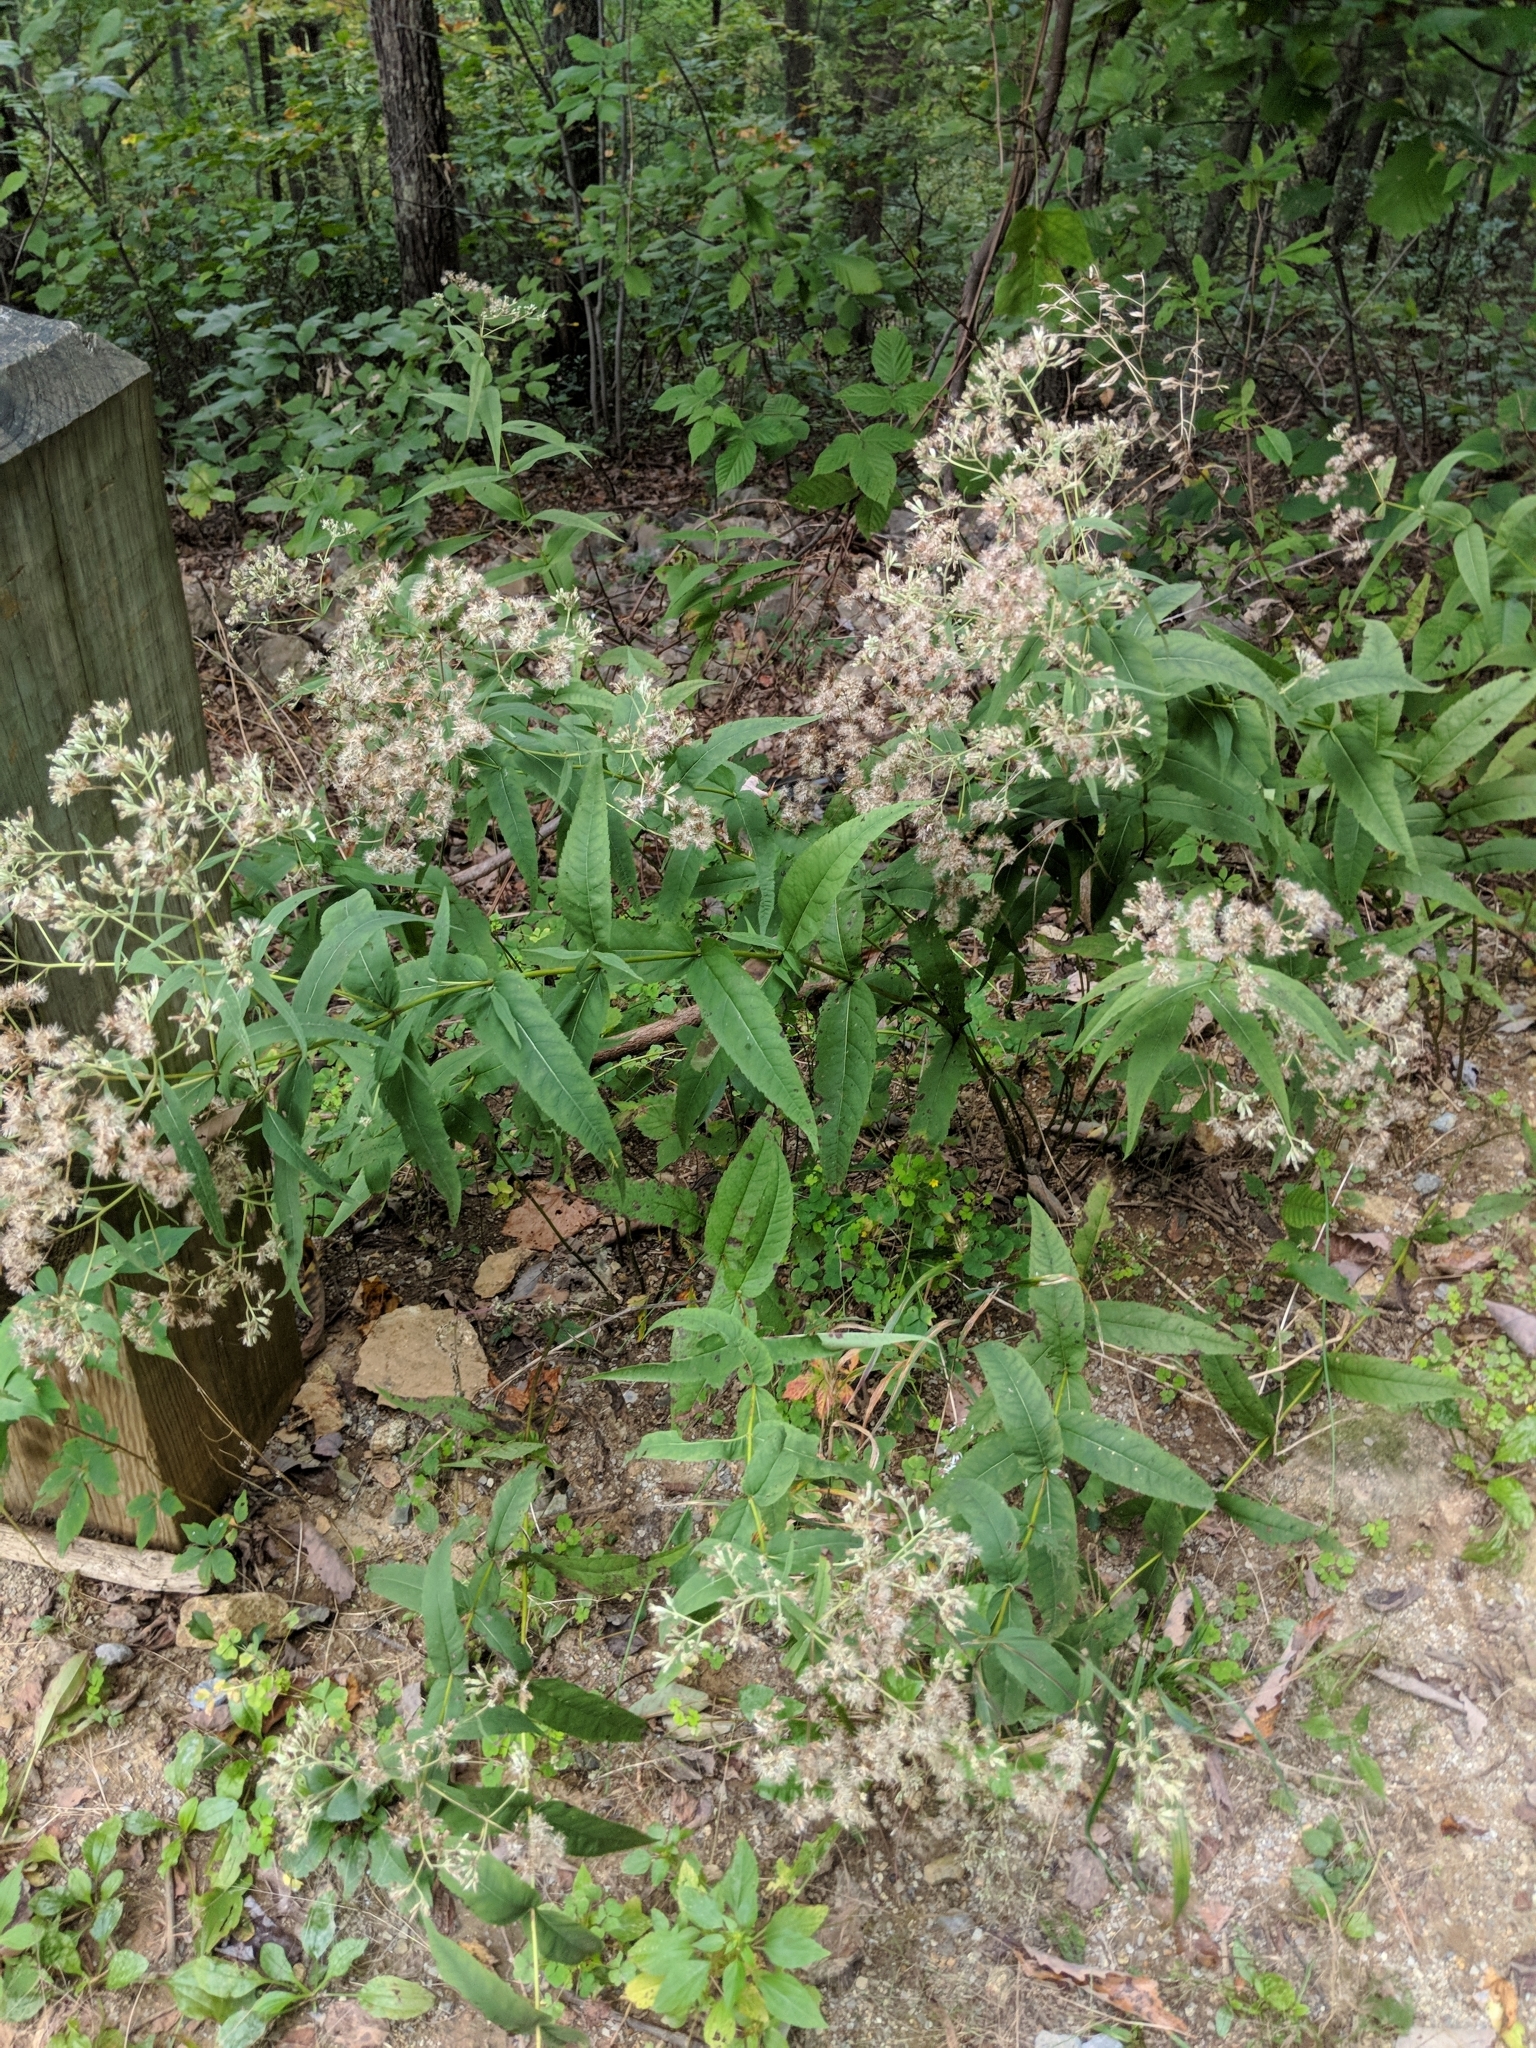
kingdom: Plantae
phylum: Tracheophyta
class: Magnoliopsida
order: Asterales
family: Asteraceae
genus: Eupatorium
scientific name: Eupatorium sessilifolium
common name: Upland boneset
